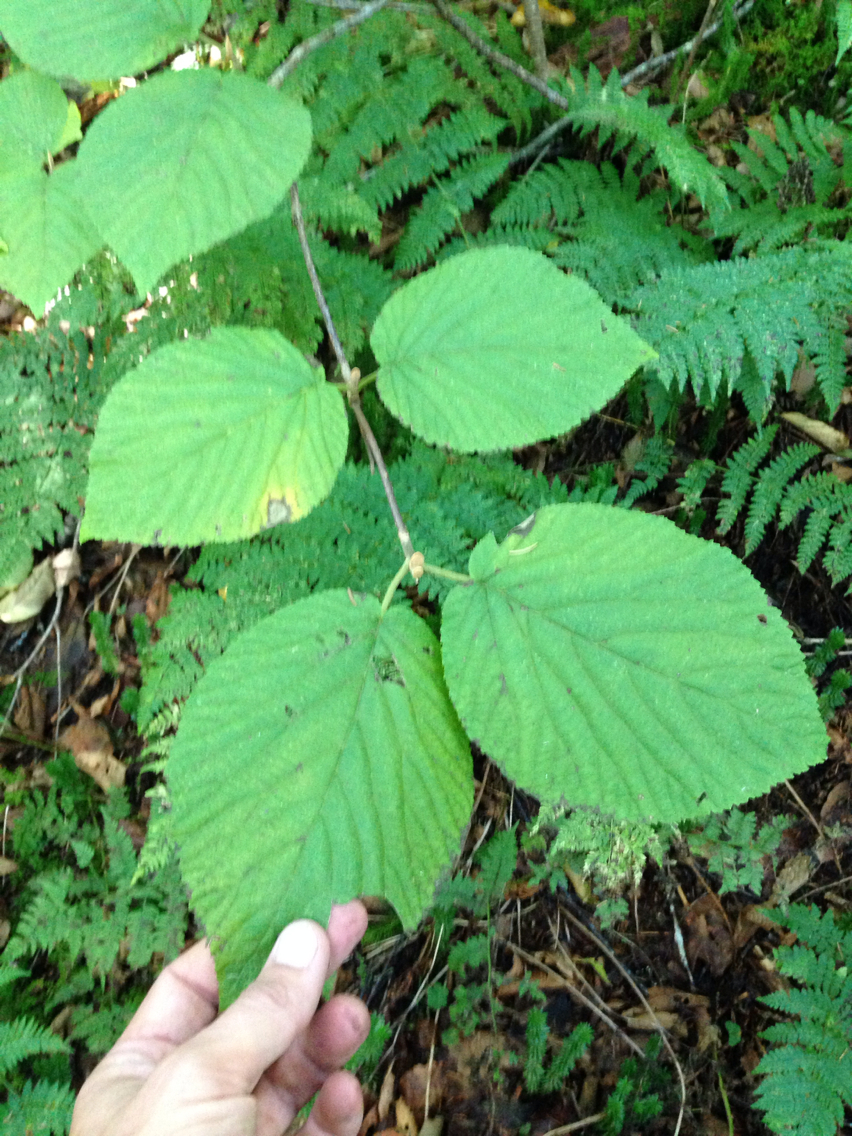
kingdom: Plantae
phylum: Tracheophyta
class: Magnoliopsida
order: Dipsacales
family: Viburnaceae
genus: Viburnum
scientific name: Viburnum lantanoides
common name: Hobblebush
